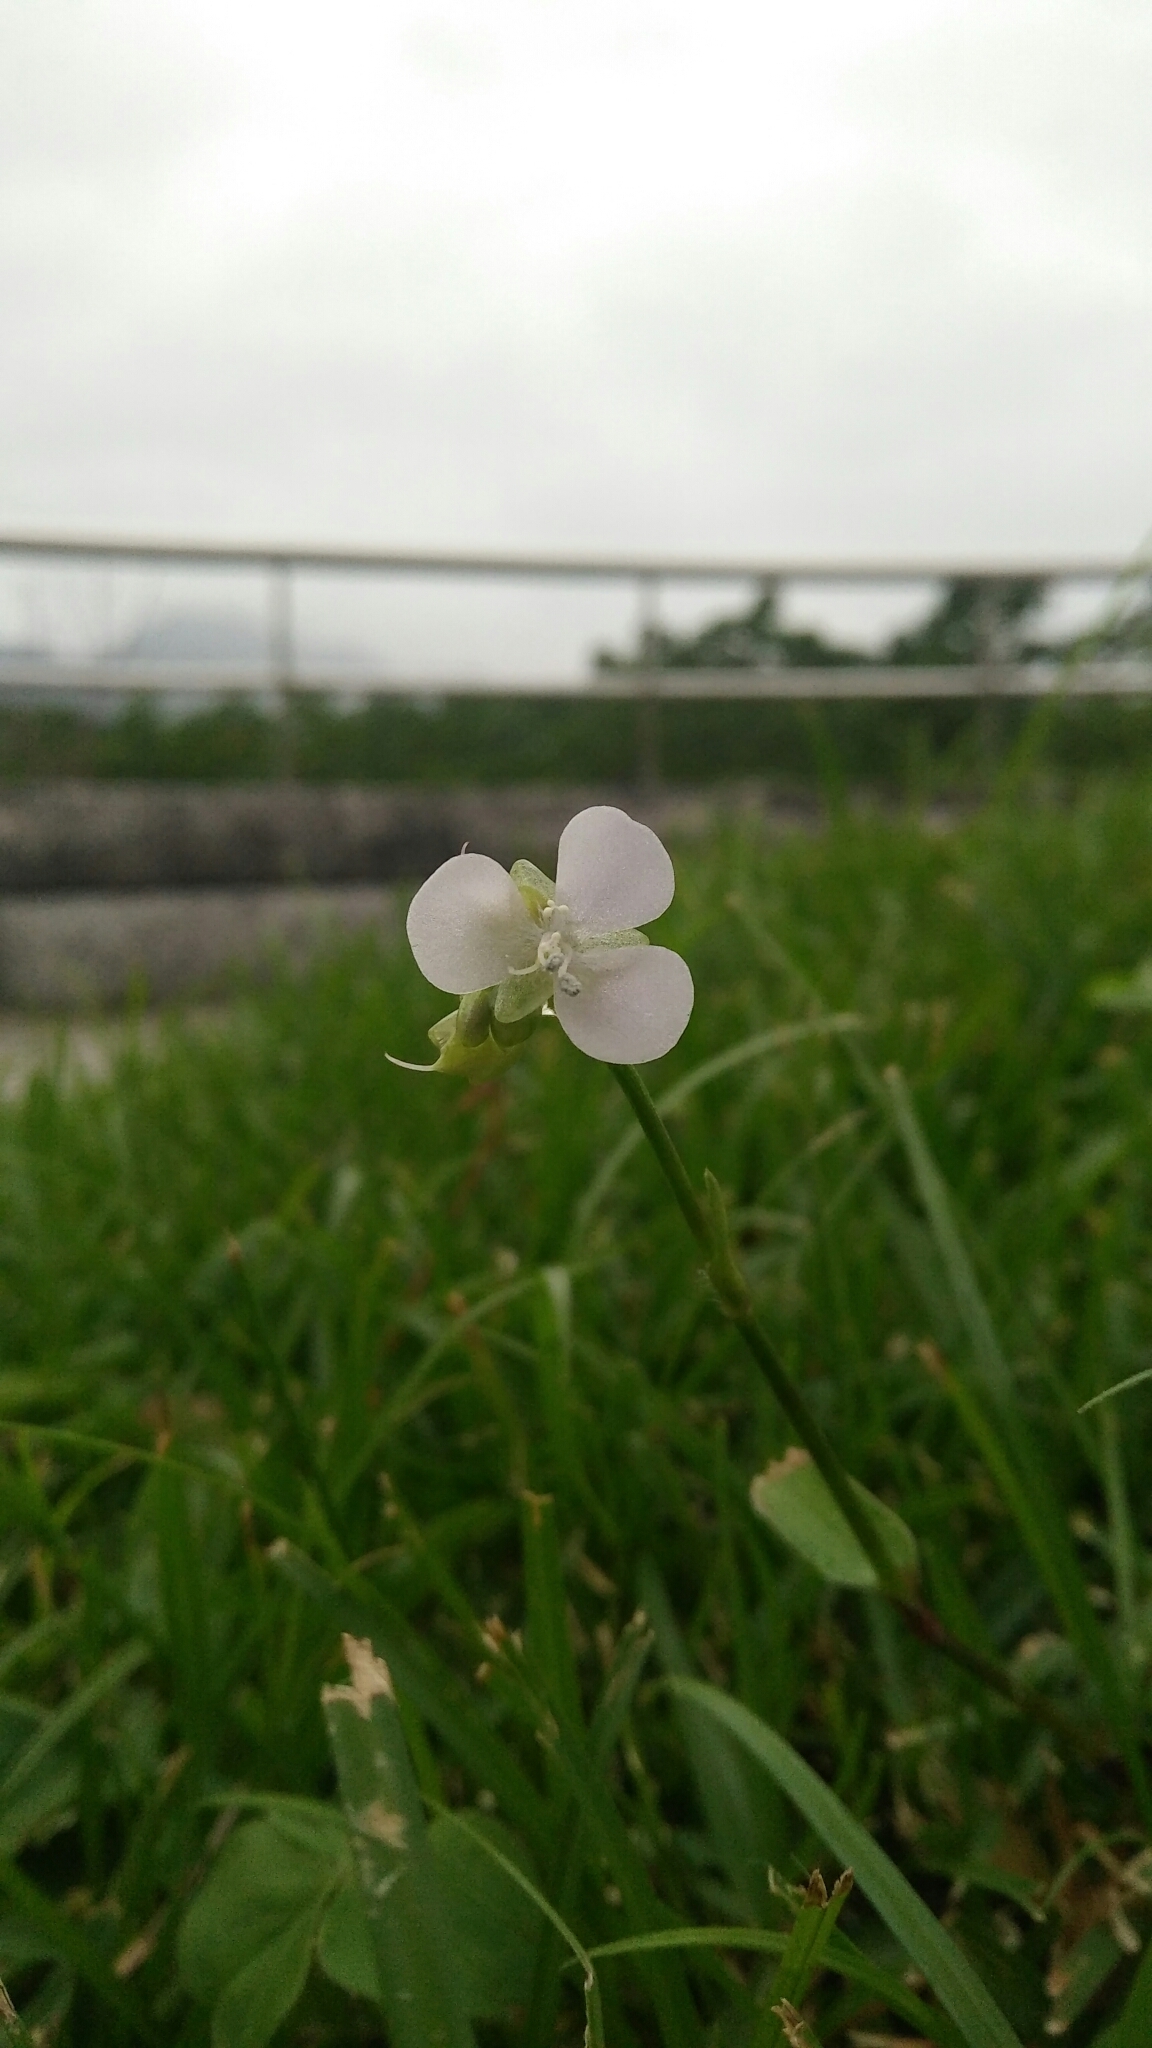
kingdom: Plantae
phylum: Tracheophyta
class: Liliopsida
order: Commelinales
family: Commelinaceae
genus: Murdannia
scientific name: Murdannia loriformis
